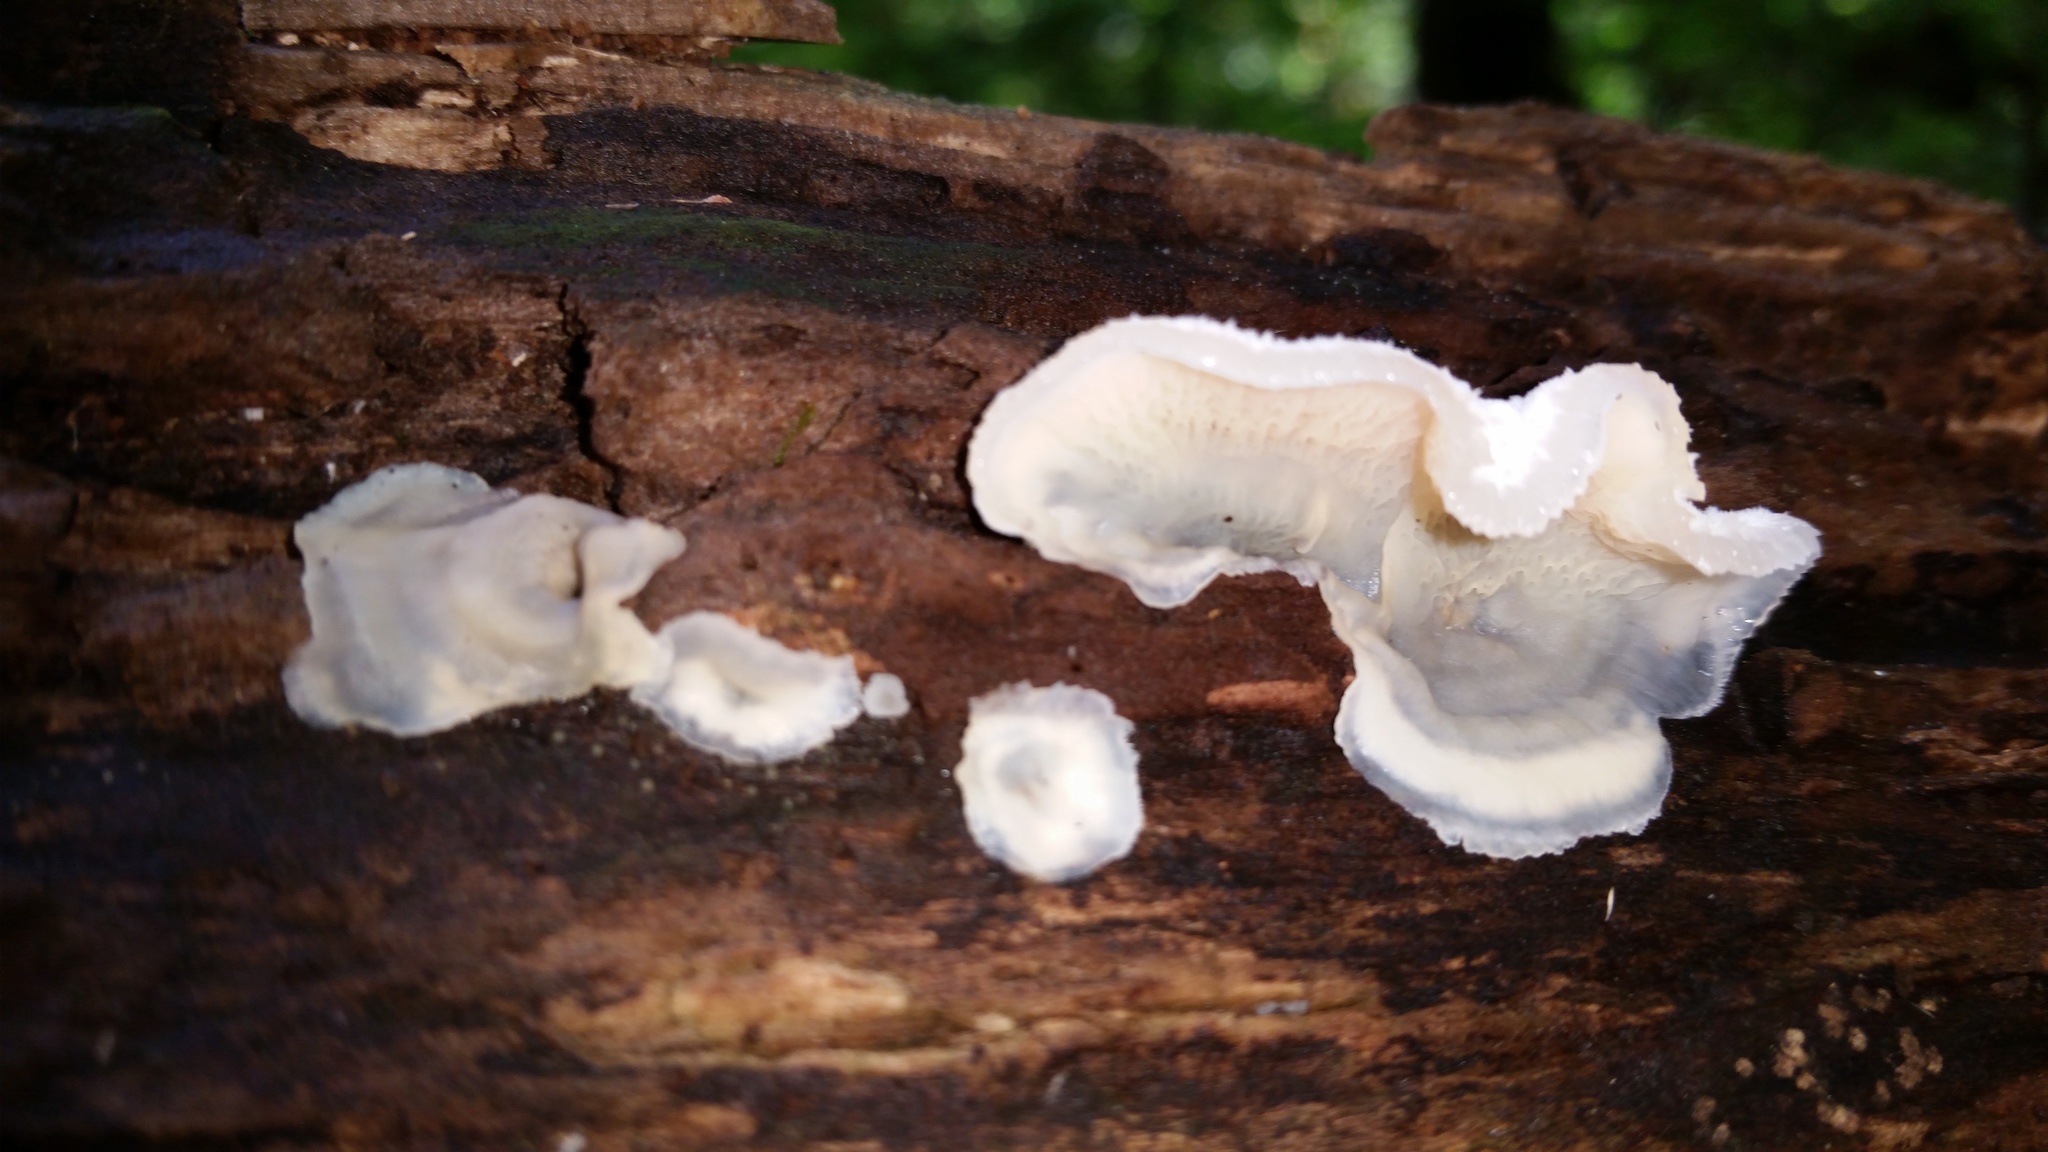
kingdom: Fungi
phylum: Basidiomycota
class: Agaricomycetes
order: Polyporales
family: Meruliaceae
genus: Phlebia
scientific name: Phlebia tremellosa
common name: Jelly rot
